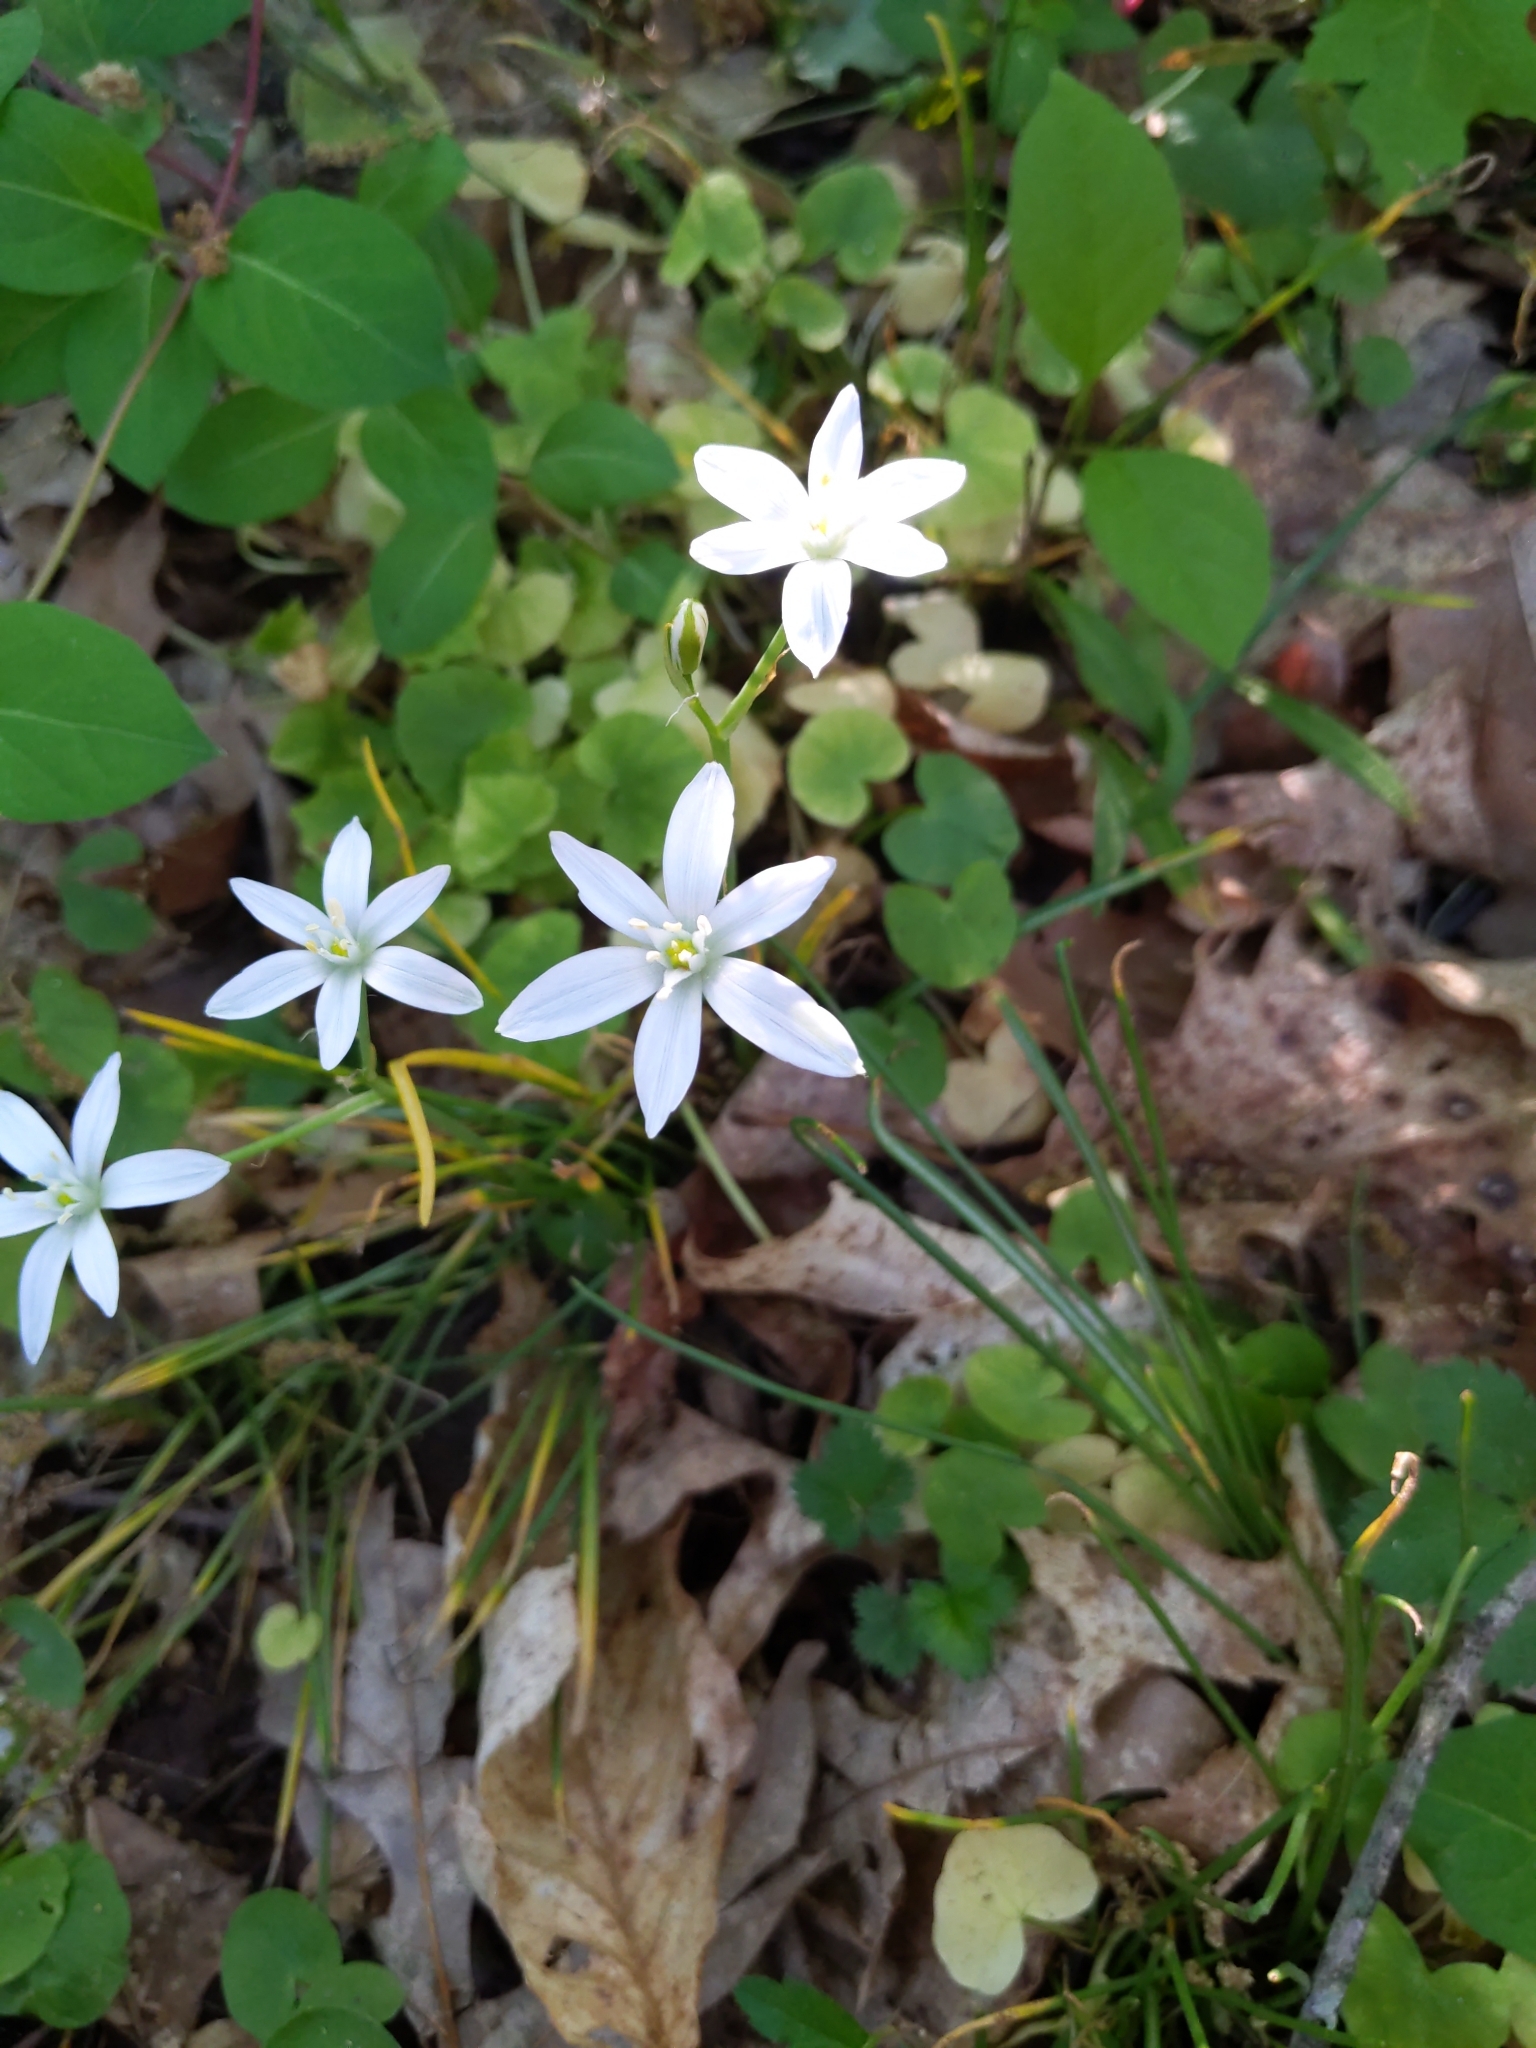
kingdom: Plantae
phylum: Tracheophyta
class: Liliopsida
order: Asparagales
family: Asparagaceae
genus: Ornithogalum
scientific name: Ornithogalum umbellatum
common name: Garden star-of-bethlehem
